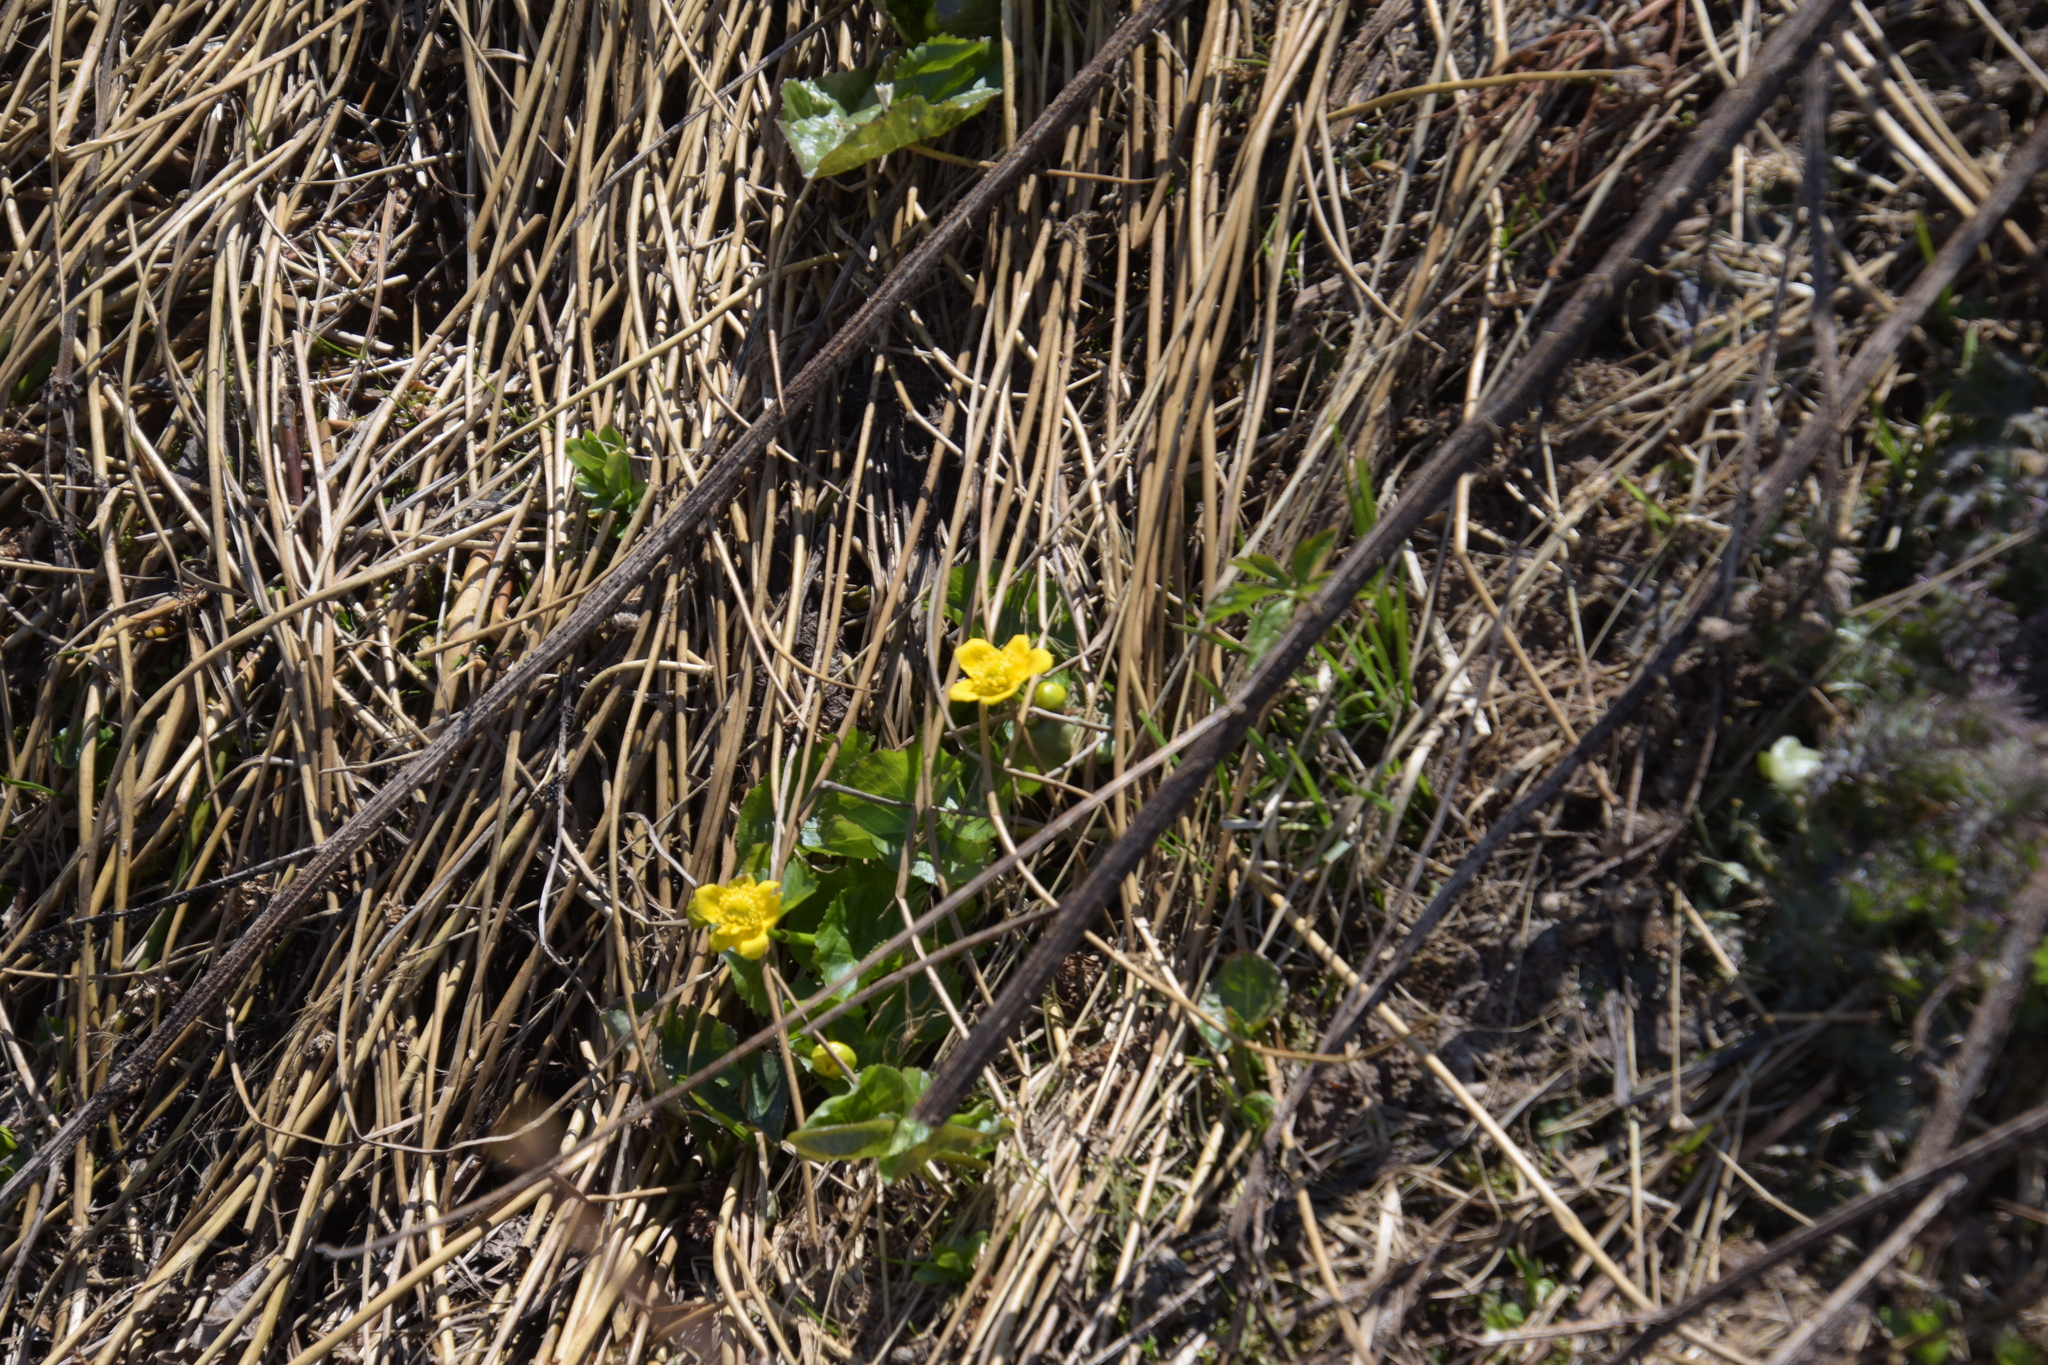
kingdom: Plantae
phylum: Tracheophyta
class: Magnoliopsida
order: Ranunculales
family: Ranunculaceae
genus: Caltha
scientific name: Caltha palustris
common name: Marsh marigold
